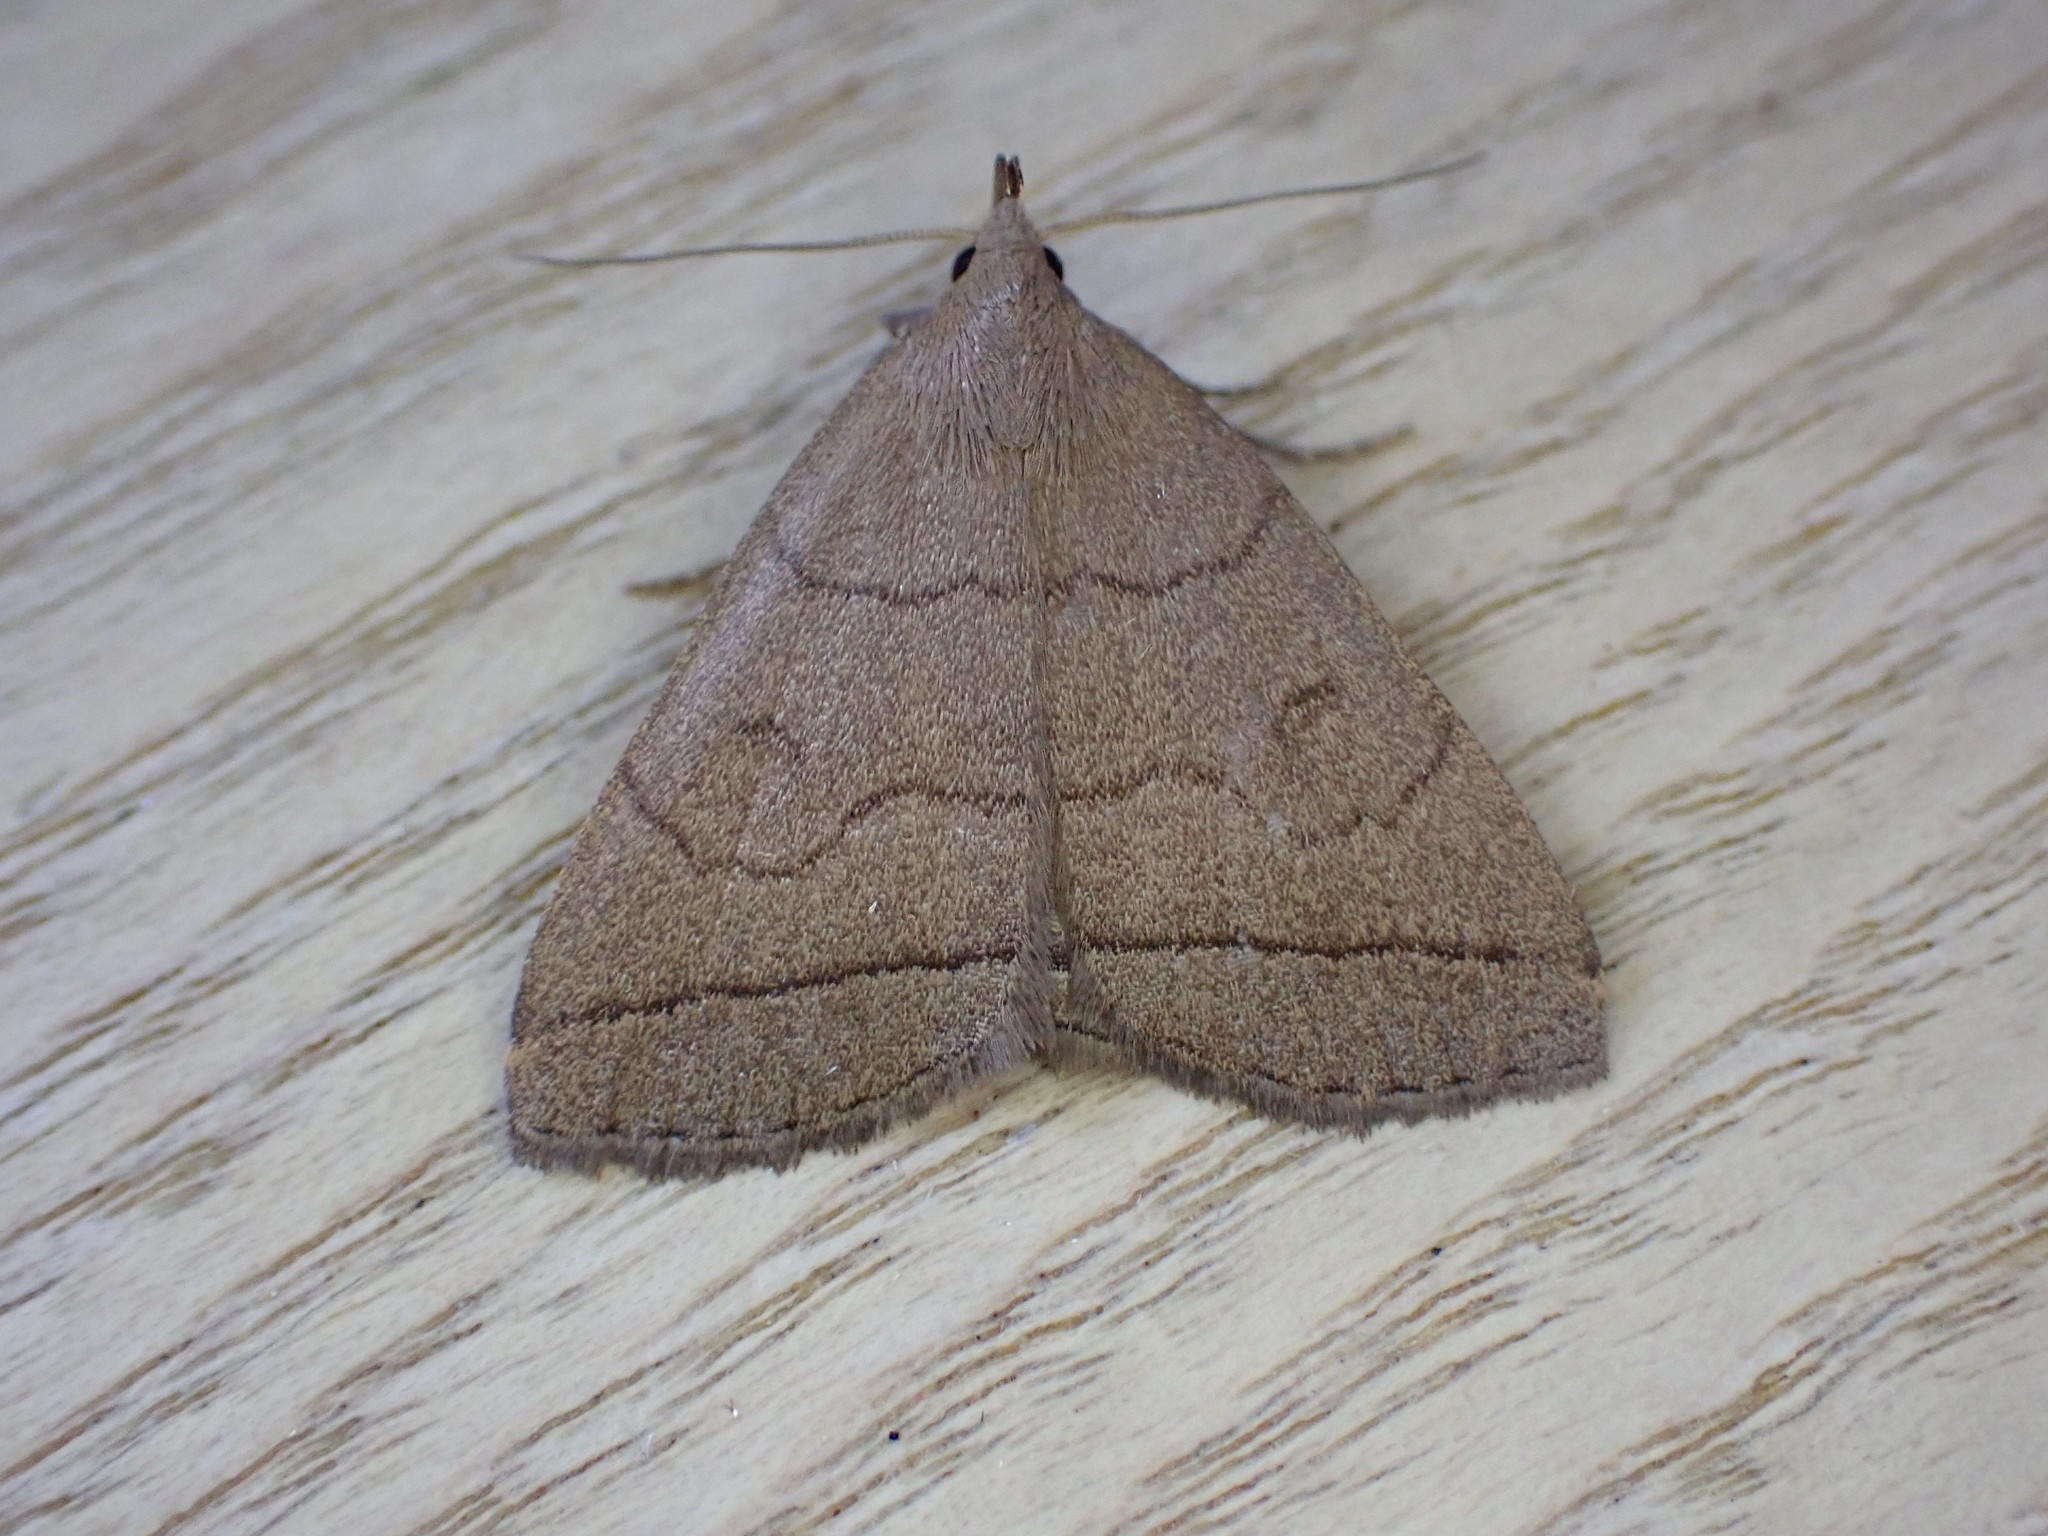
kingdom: Animalia
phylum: Arthropoda
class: Insecta
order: Lepidoptera
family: Erebidae
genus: Herminia
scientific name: Herminia tarsipennalis
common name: Fan-foot
